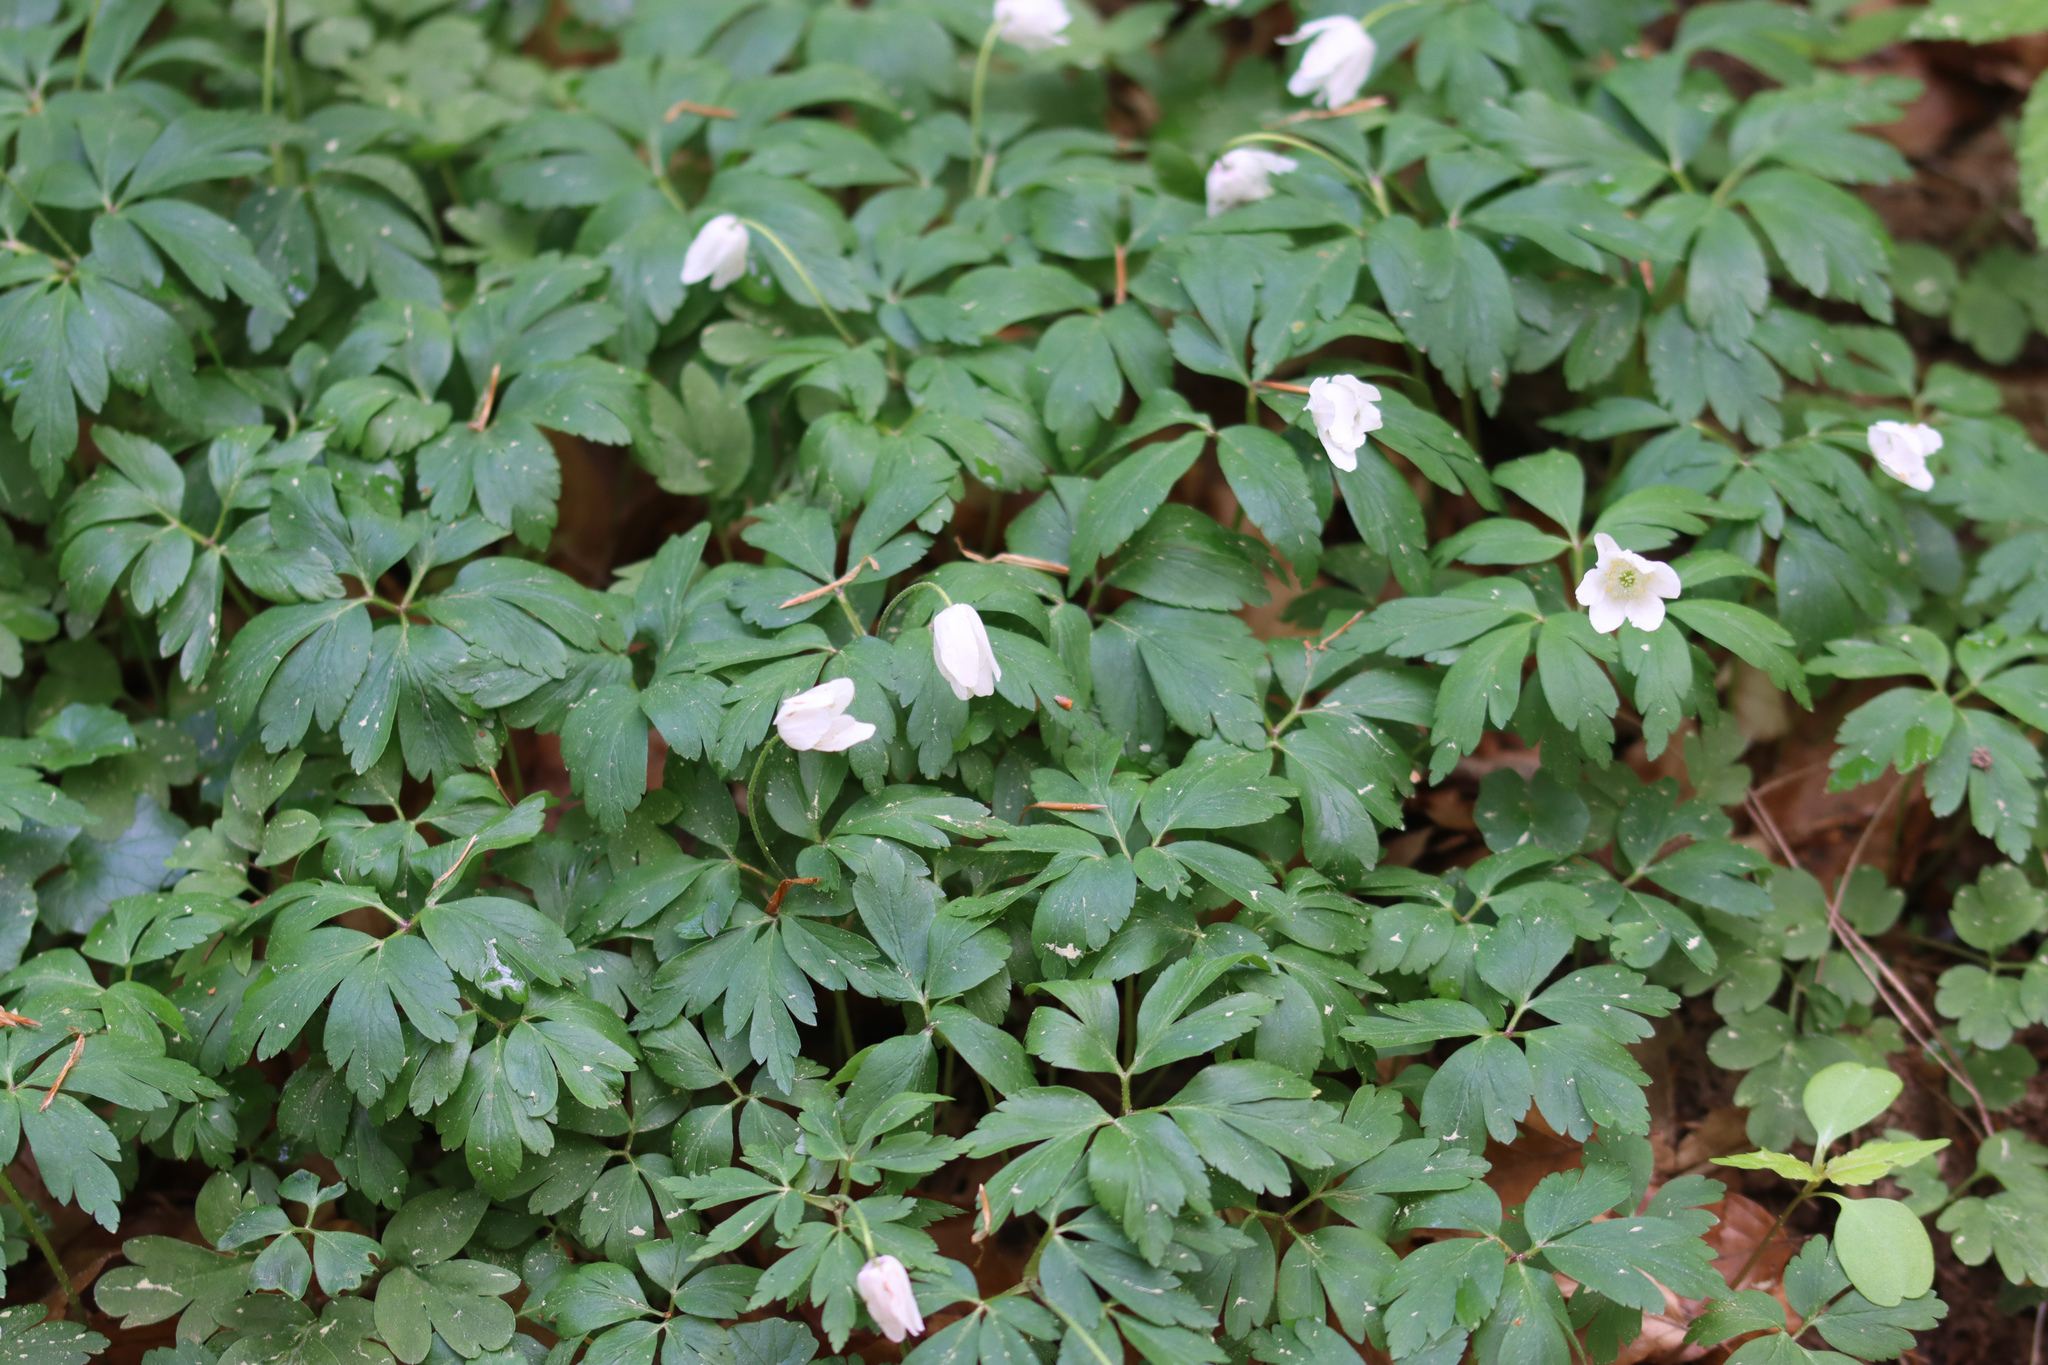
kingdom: Plantae
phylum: Tracheophyta
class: Magnoliopsida
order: Ranunculales
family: Ranunculaceae
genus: Anemone
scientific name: Anemone nemorosa
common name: Wood anemone
